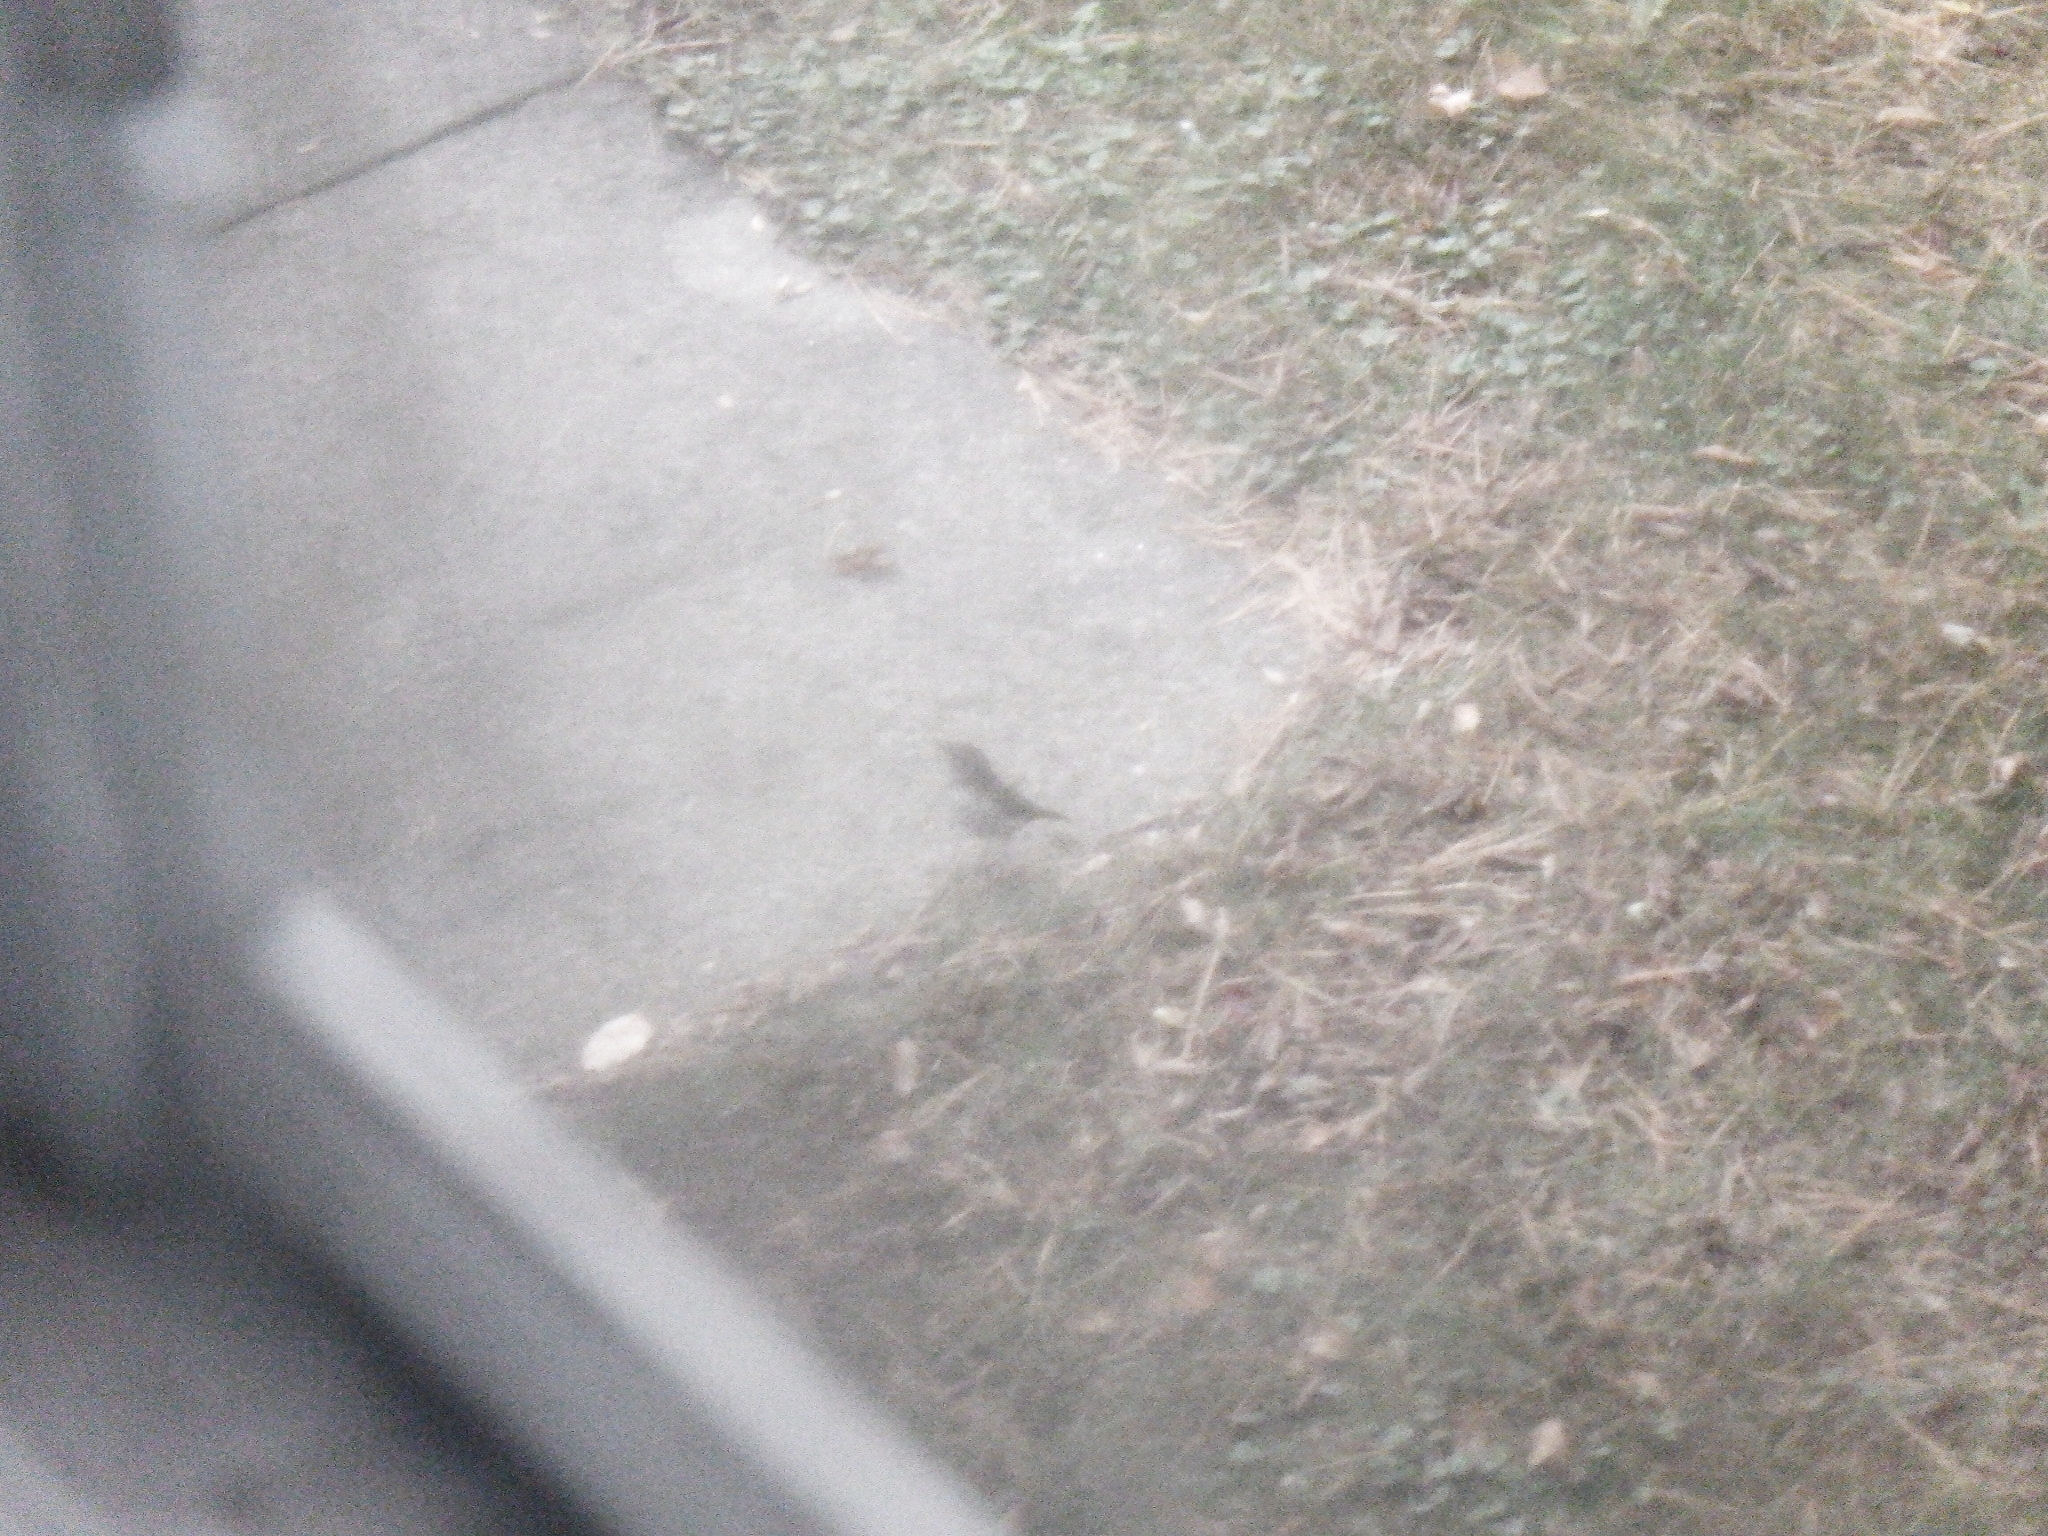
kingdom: Animalia
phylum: Chordata
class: Aves
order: Passeriformes
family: Turdidae
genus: Catharus
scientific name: Catharus guttatus
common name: Hermit thrush
